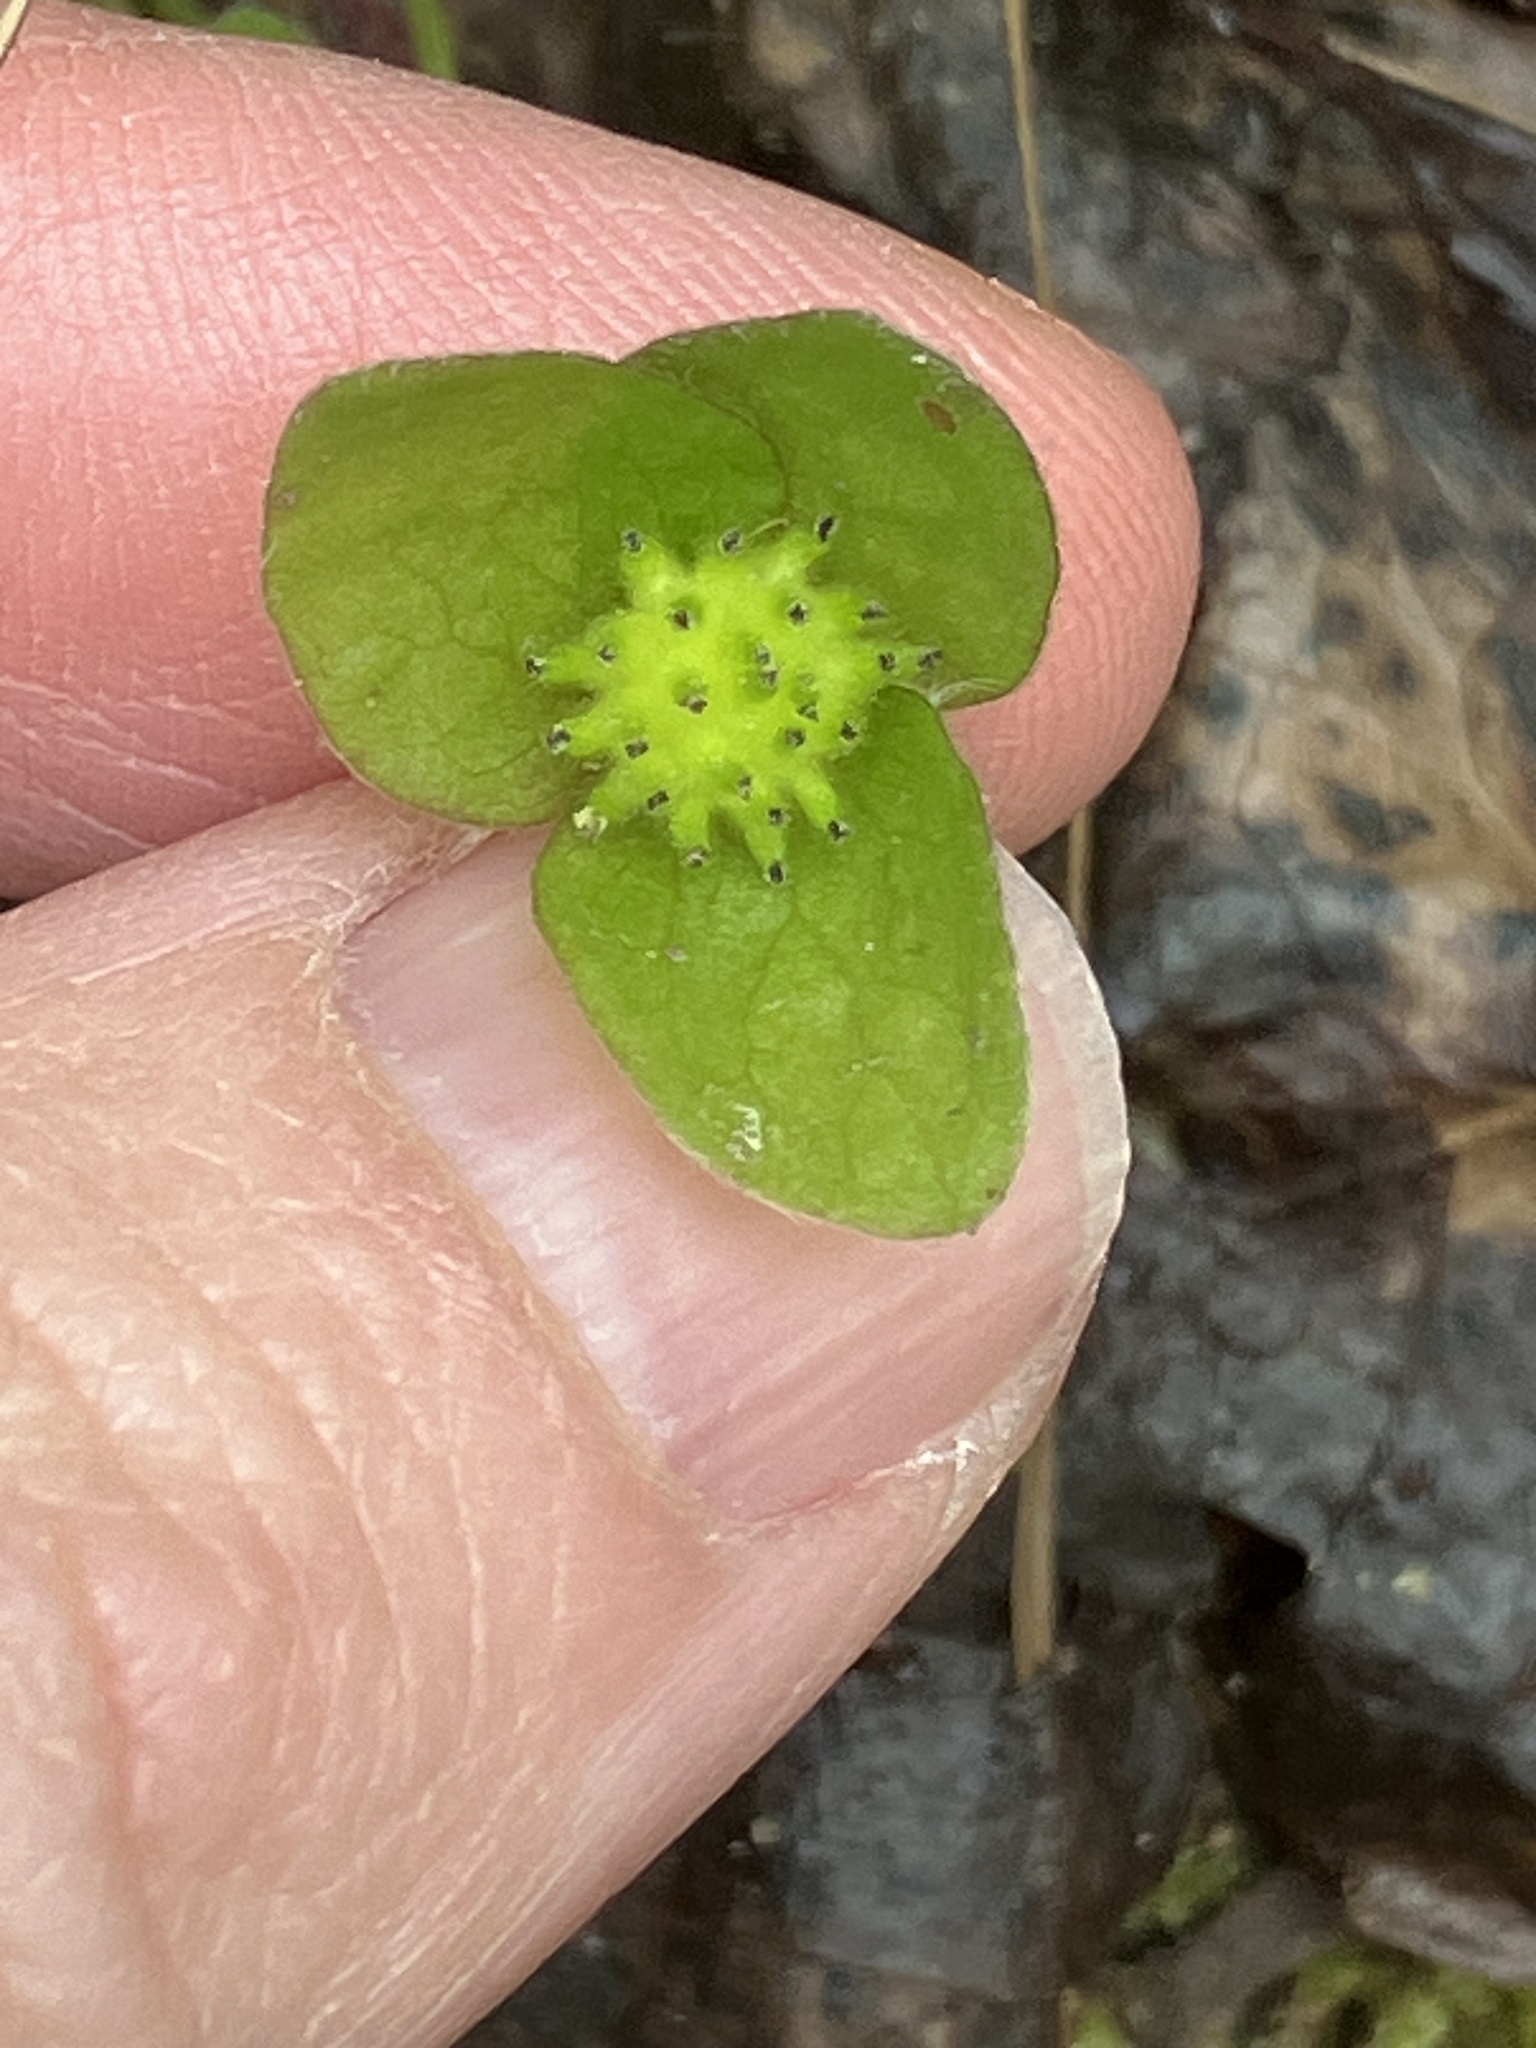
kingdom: Plantae
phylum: Tracheophyta
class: Magnoliopsida
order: Ranunculales
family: Ranunculaceae
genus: Hepatica
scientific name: Hepatica nobilis
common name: Liverleaf
